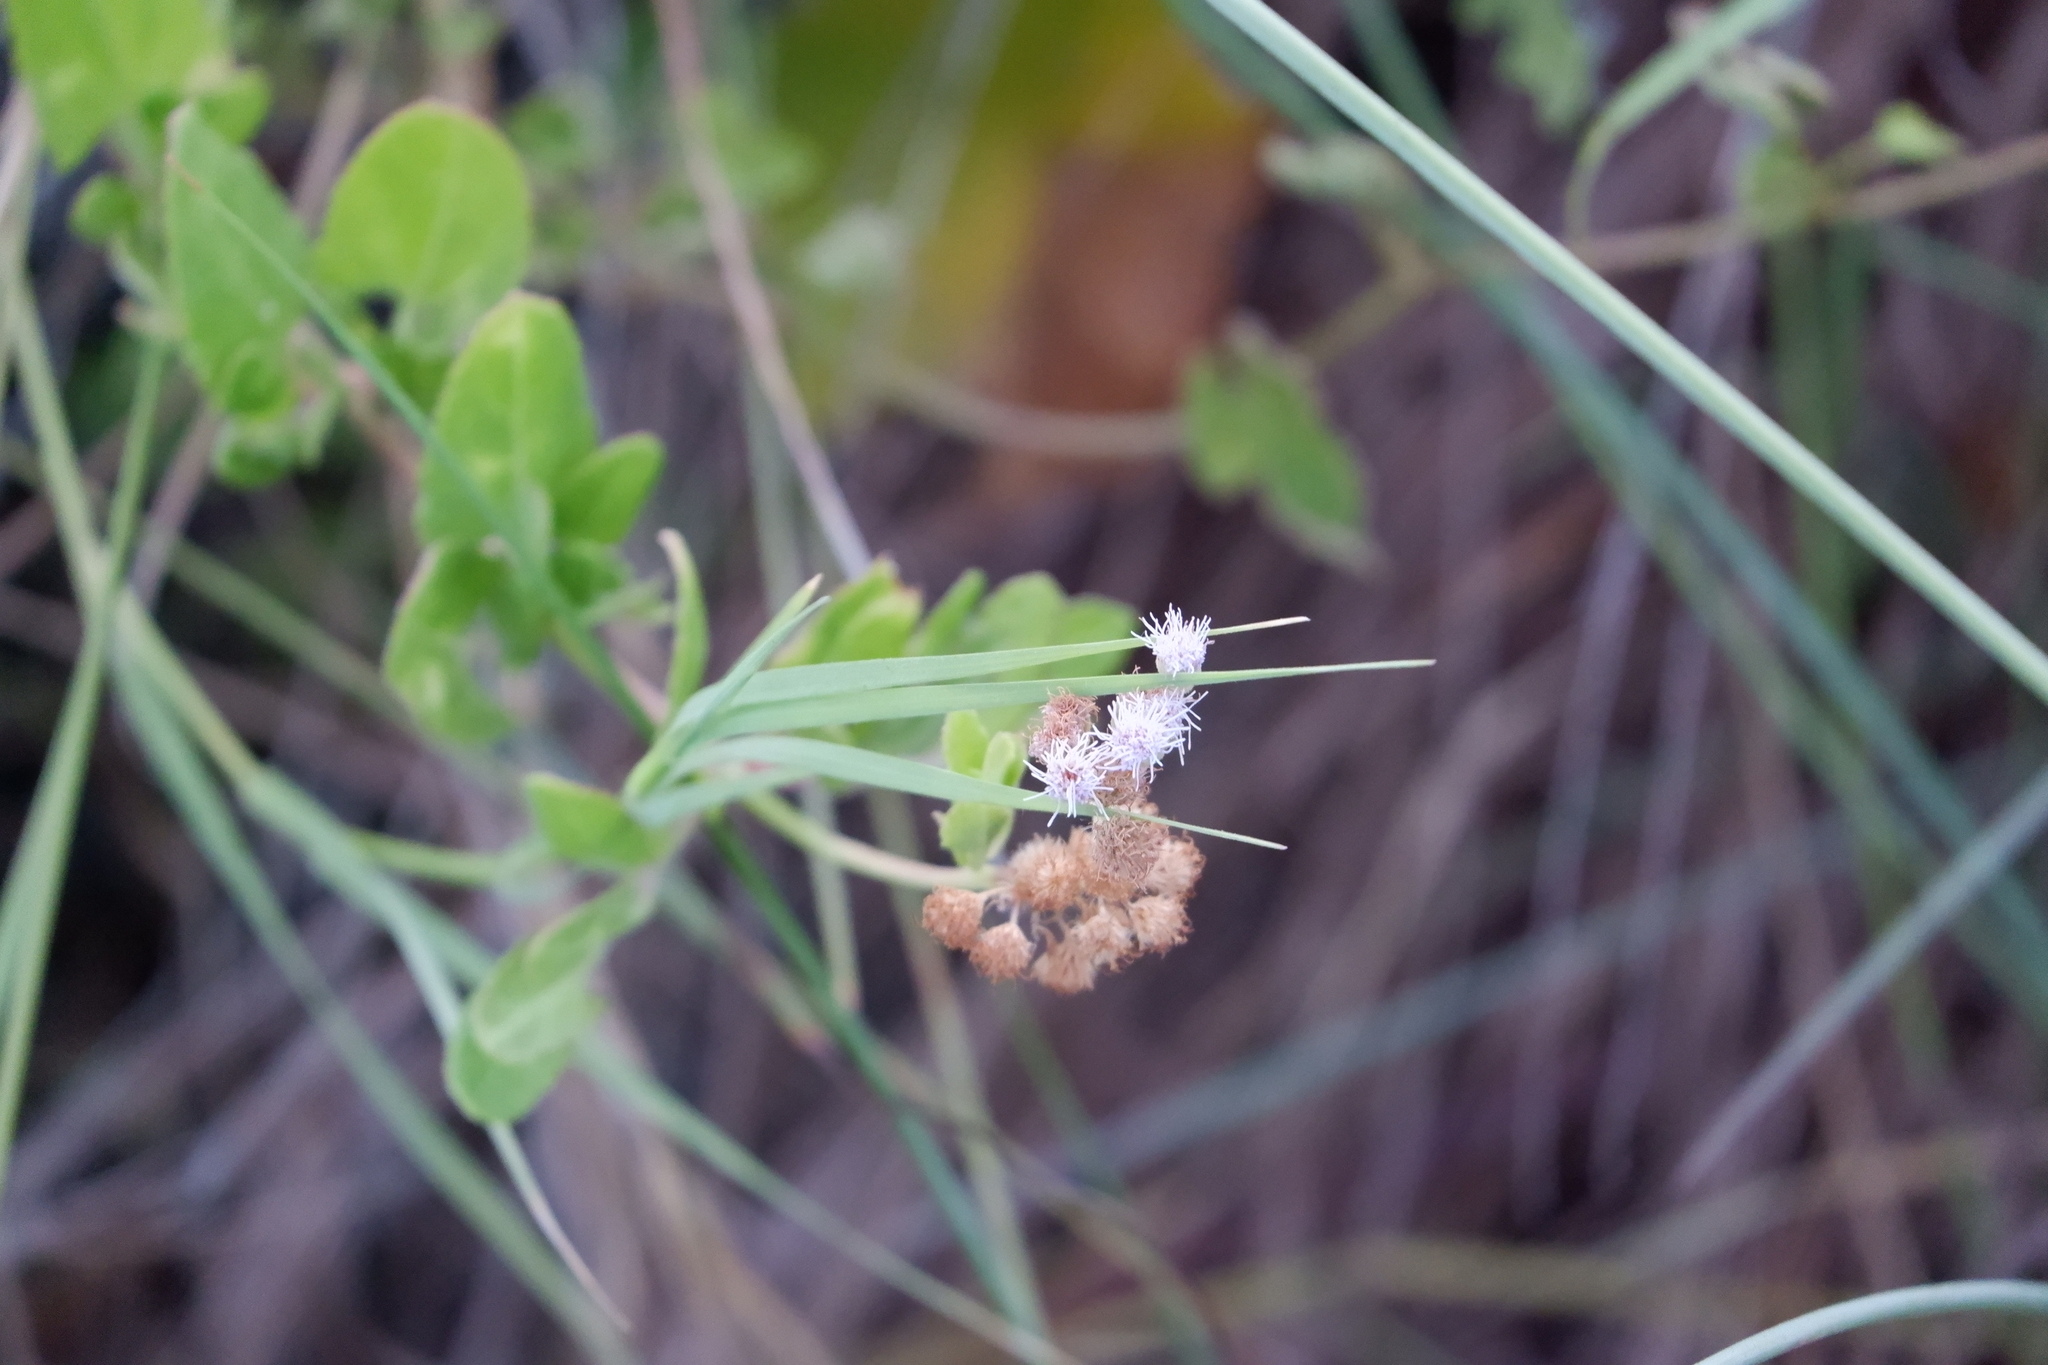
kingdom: Plantae
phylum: Tracheophyta
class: Magnoliopsida
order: Asterales
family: Asteraceae
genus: Conoclinium
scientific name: Conoclinium betonicifolium
